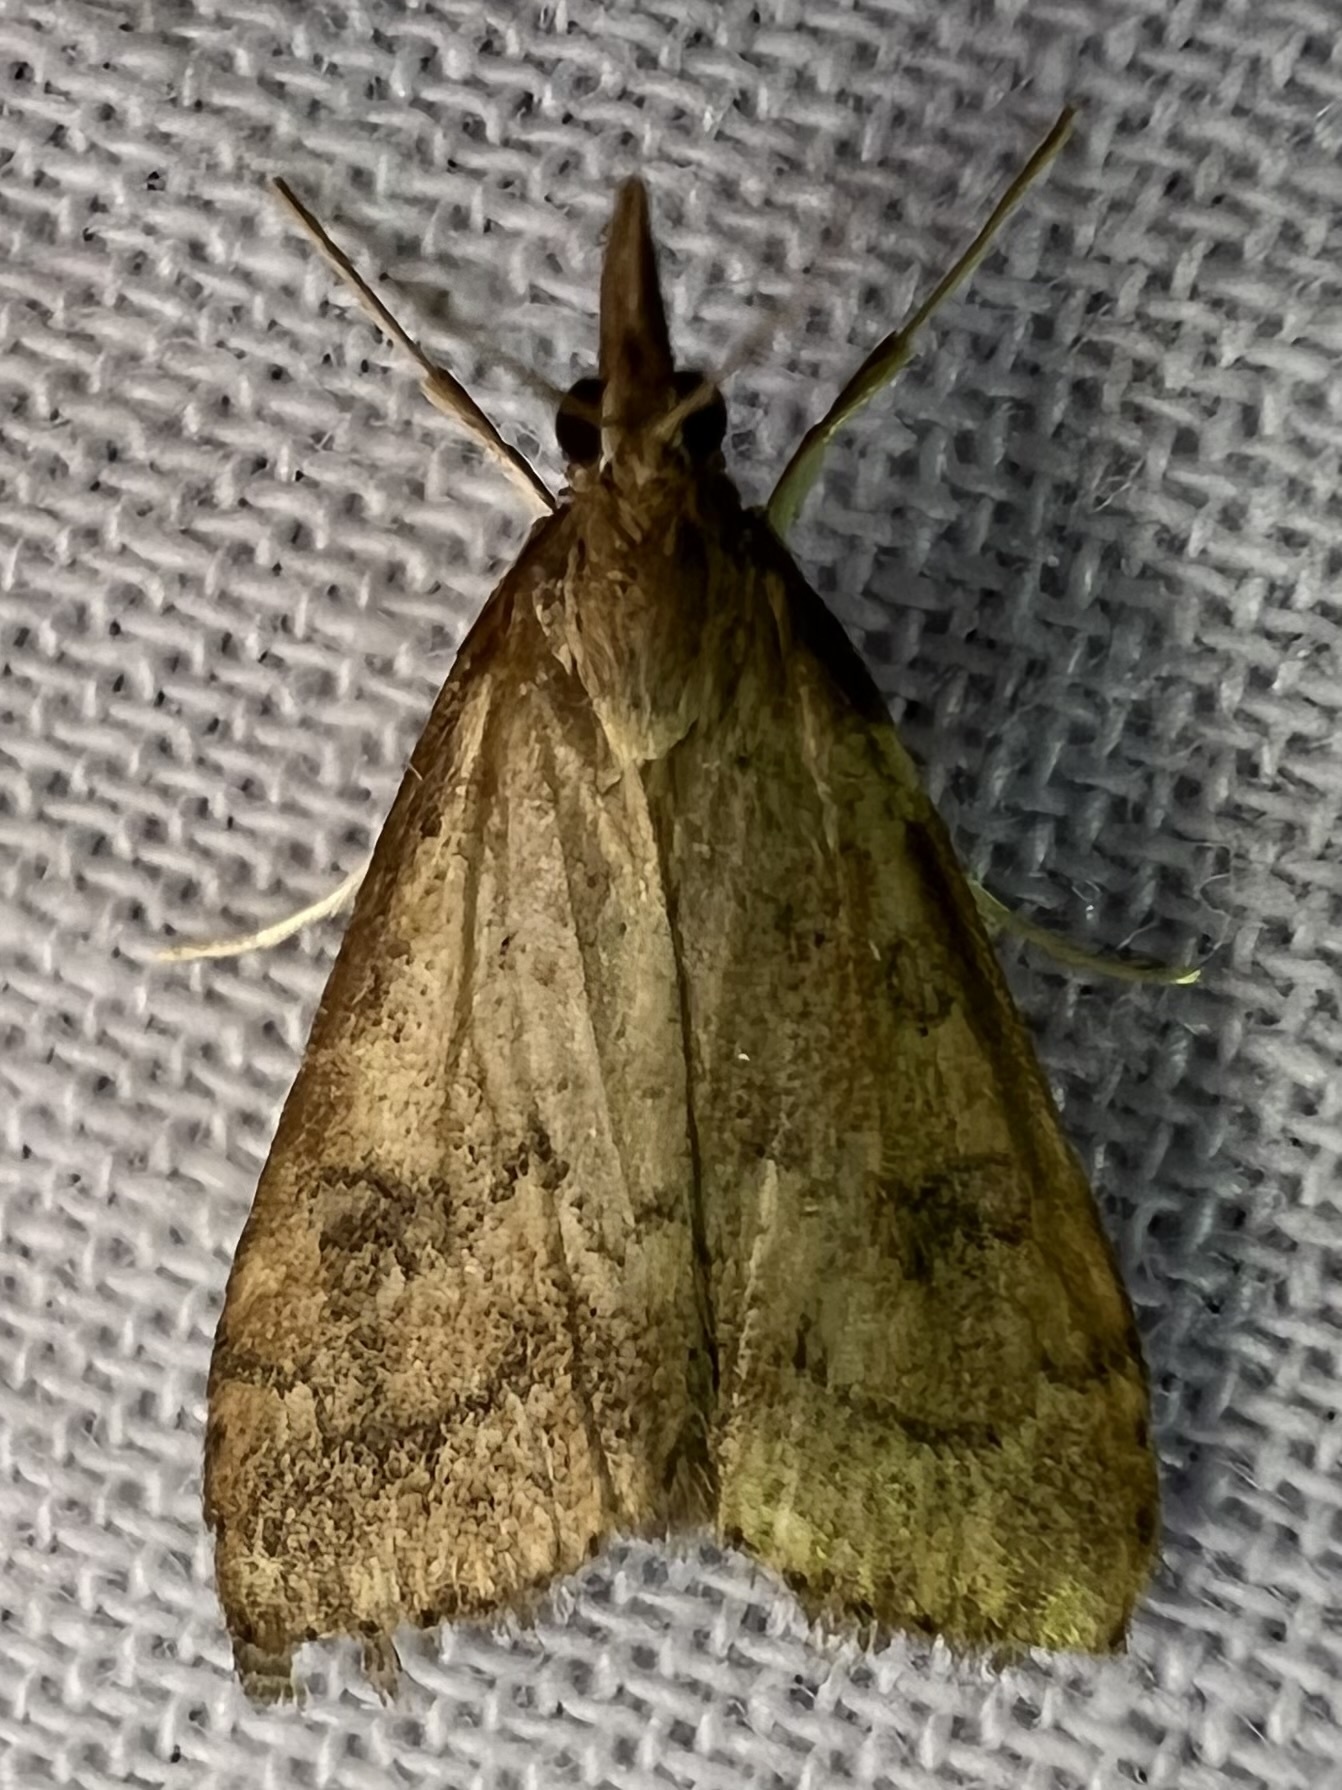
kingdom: Animalia
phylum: Arthropoda
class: Insecta
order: Lepidoptera
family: Crambidae
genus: Udea
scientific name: Udea rubigalis
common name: Celery leaftier moth
